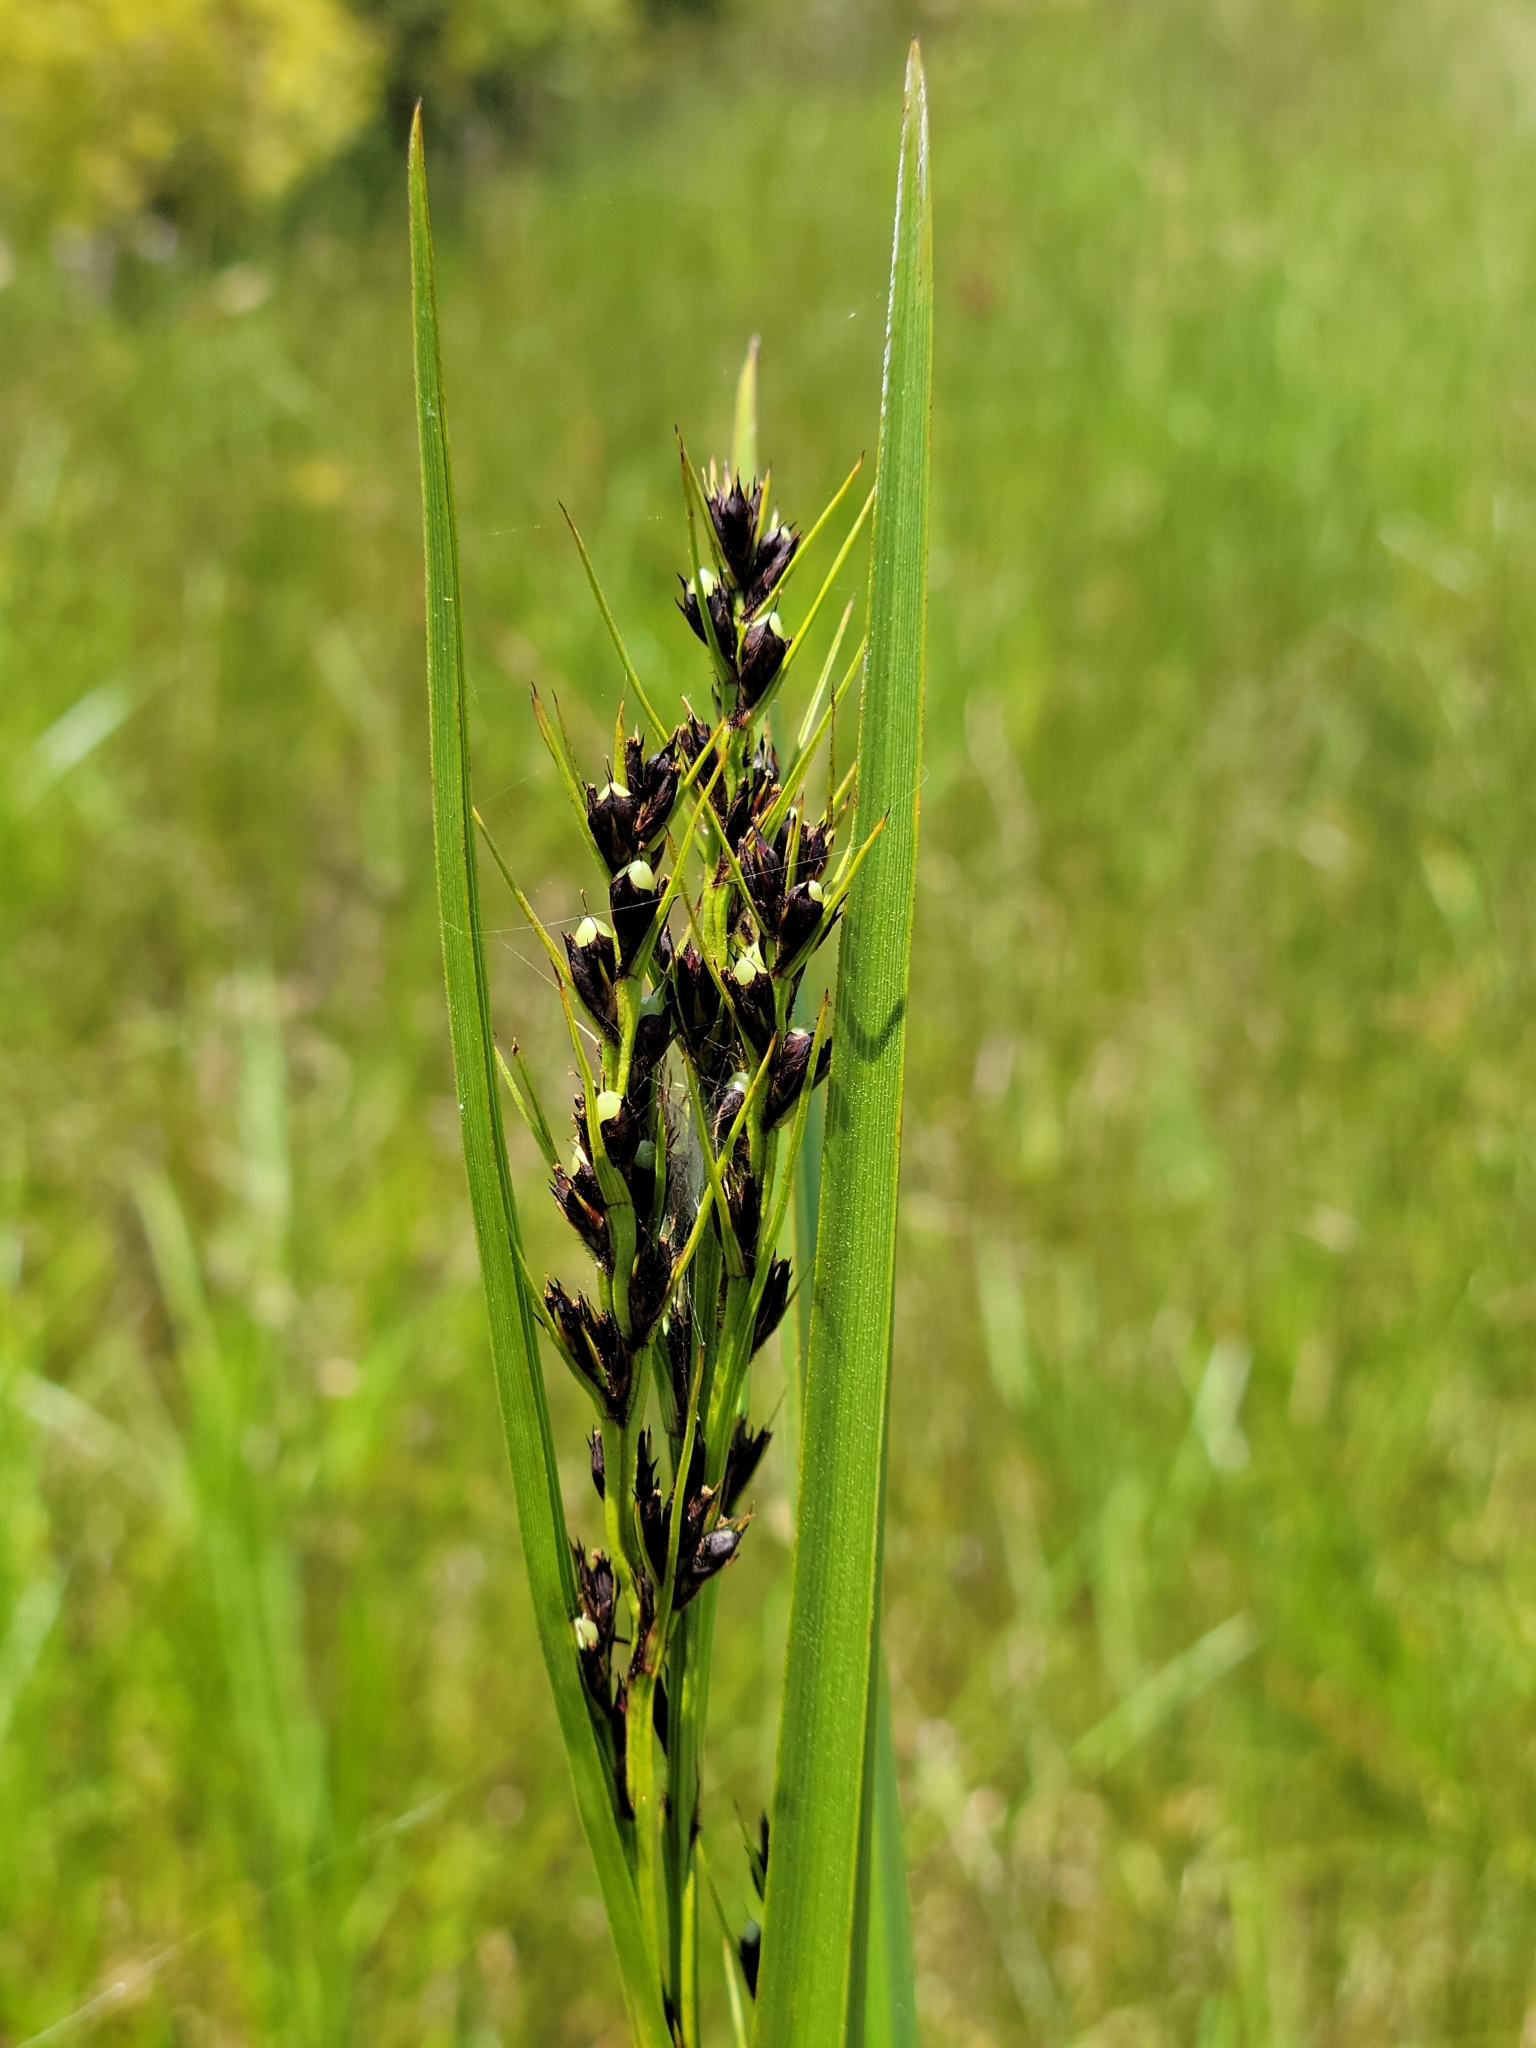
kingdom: Plantae
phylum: Tracheophyta
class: Liliopsida
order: Poales
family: Cyperaceae
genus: Scleria
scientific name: Scleria lacustris
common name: Lakeshore nutrush
